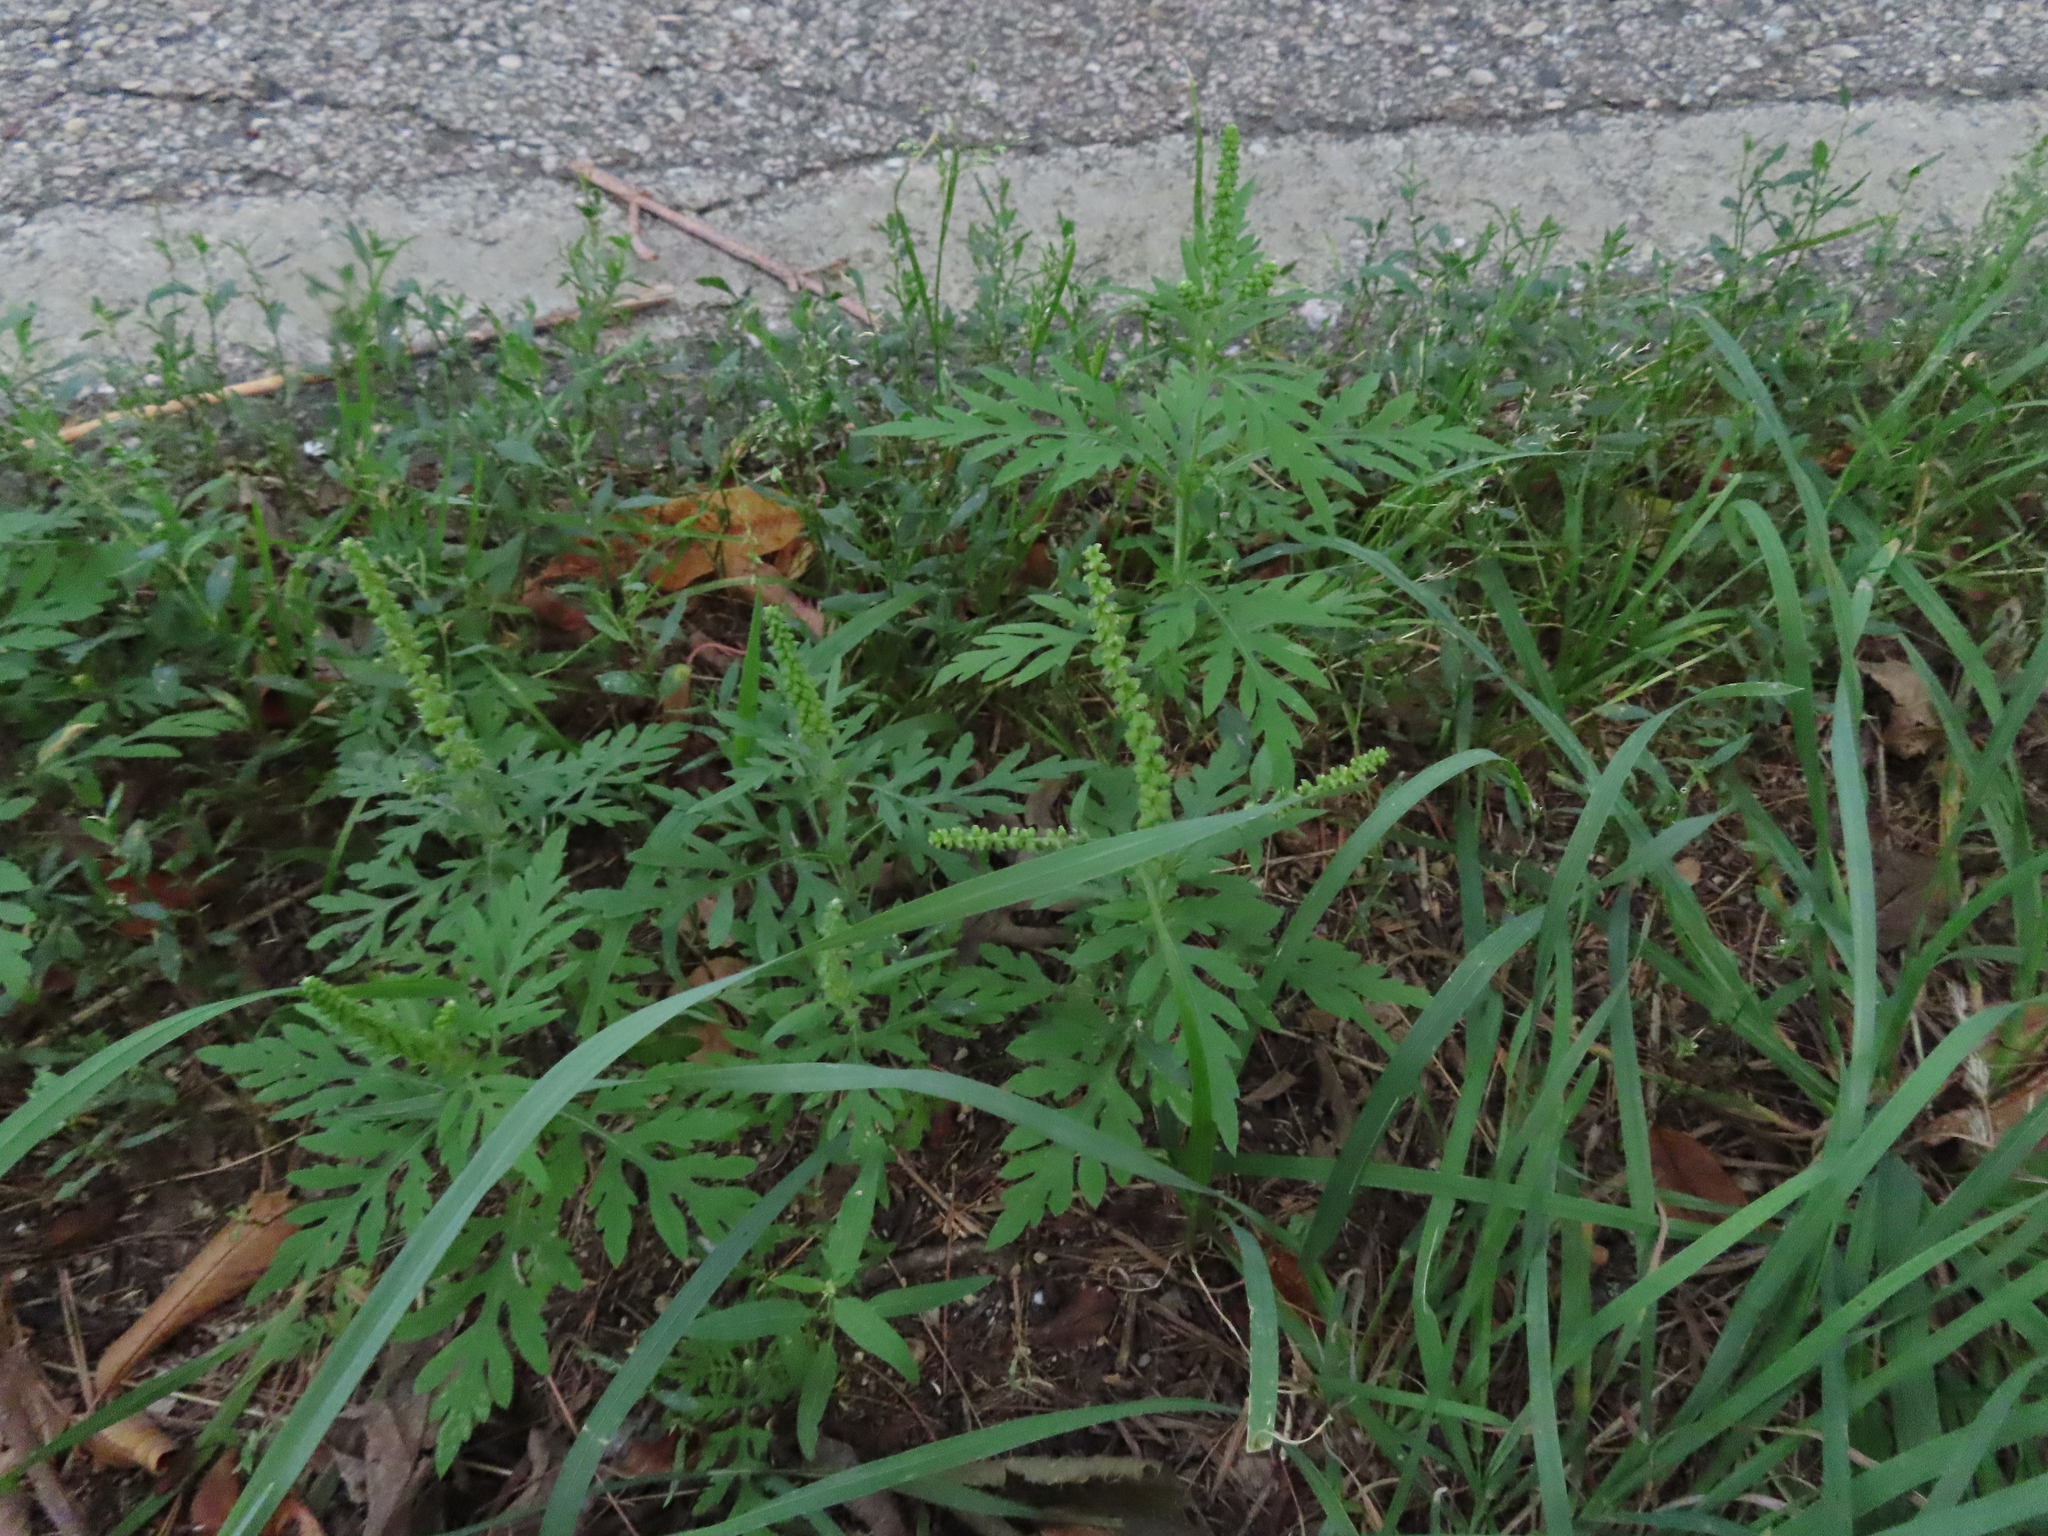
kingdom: Plantae
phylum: Tracheophyta
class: Magnoliopsida
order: Asterales
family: Asteraceae
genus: Ambrosia
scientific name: Ambrosia artemisiifolia
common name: Annual ragweed
